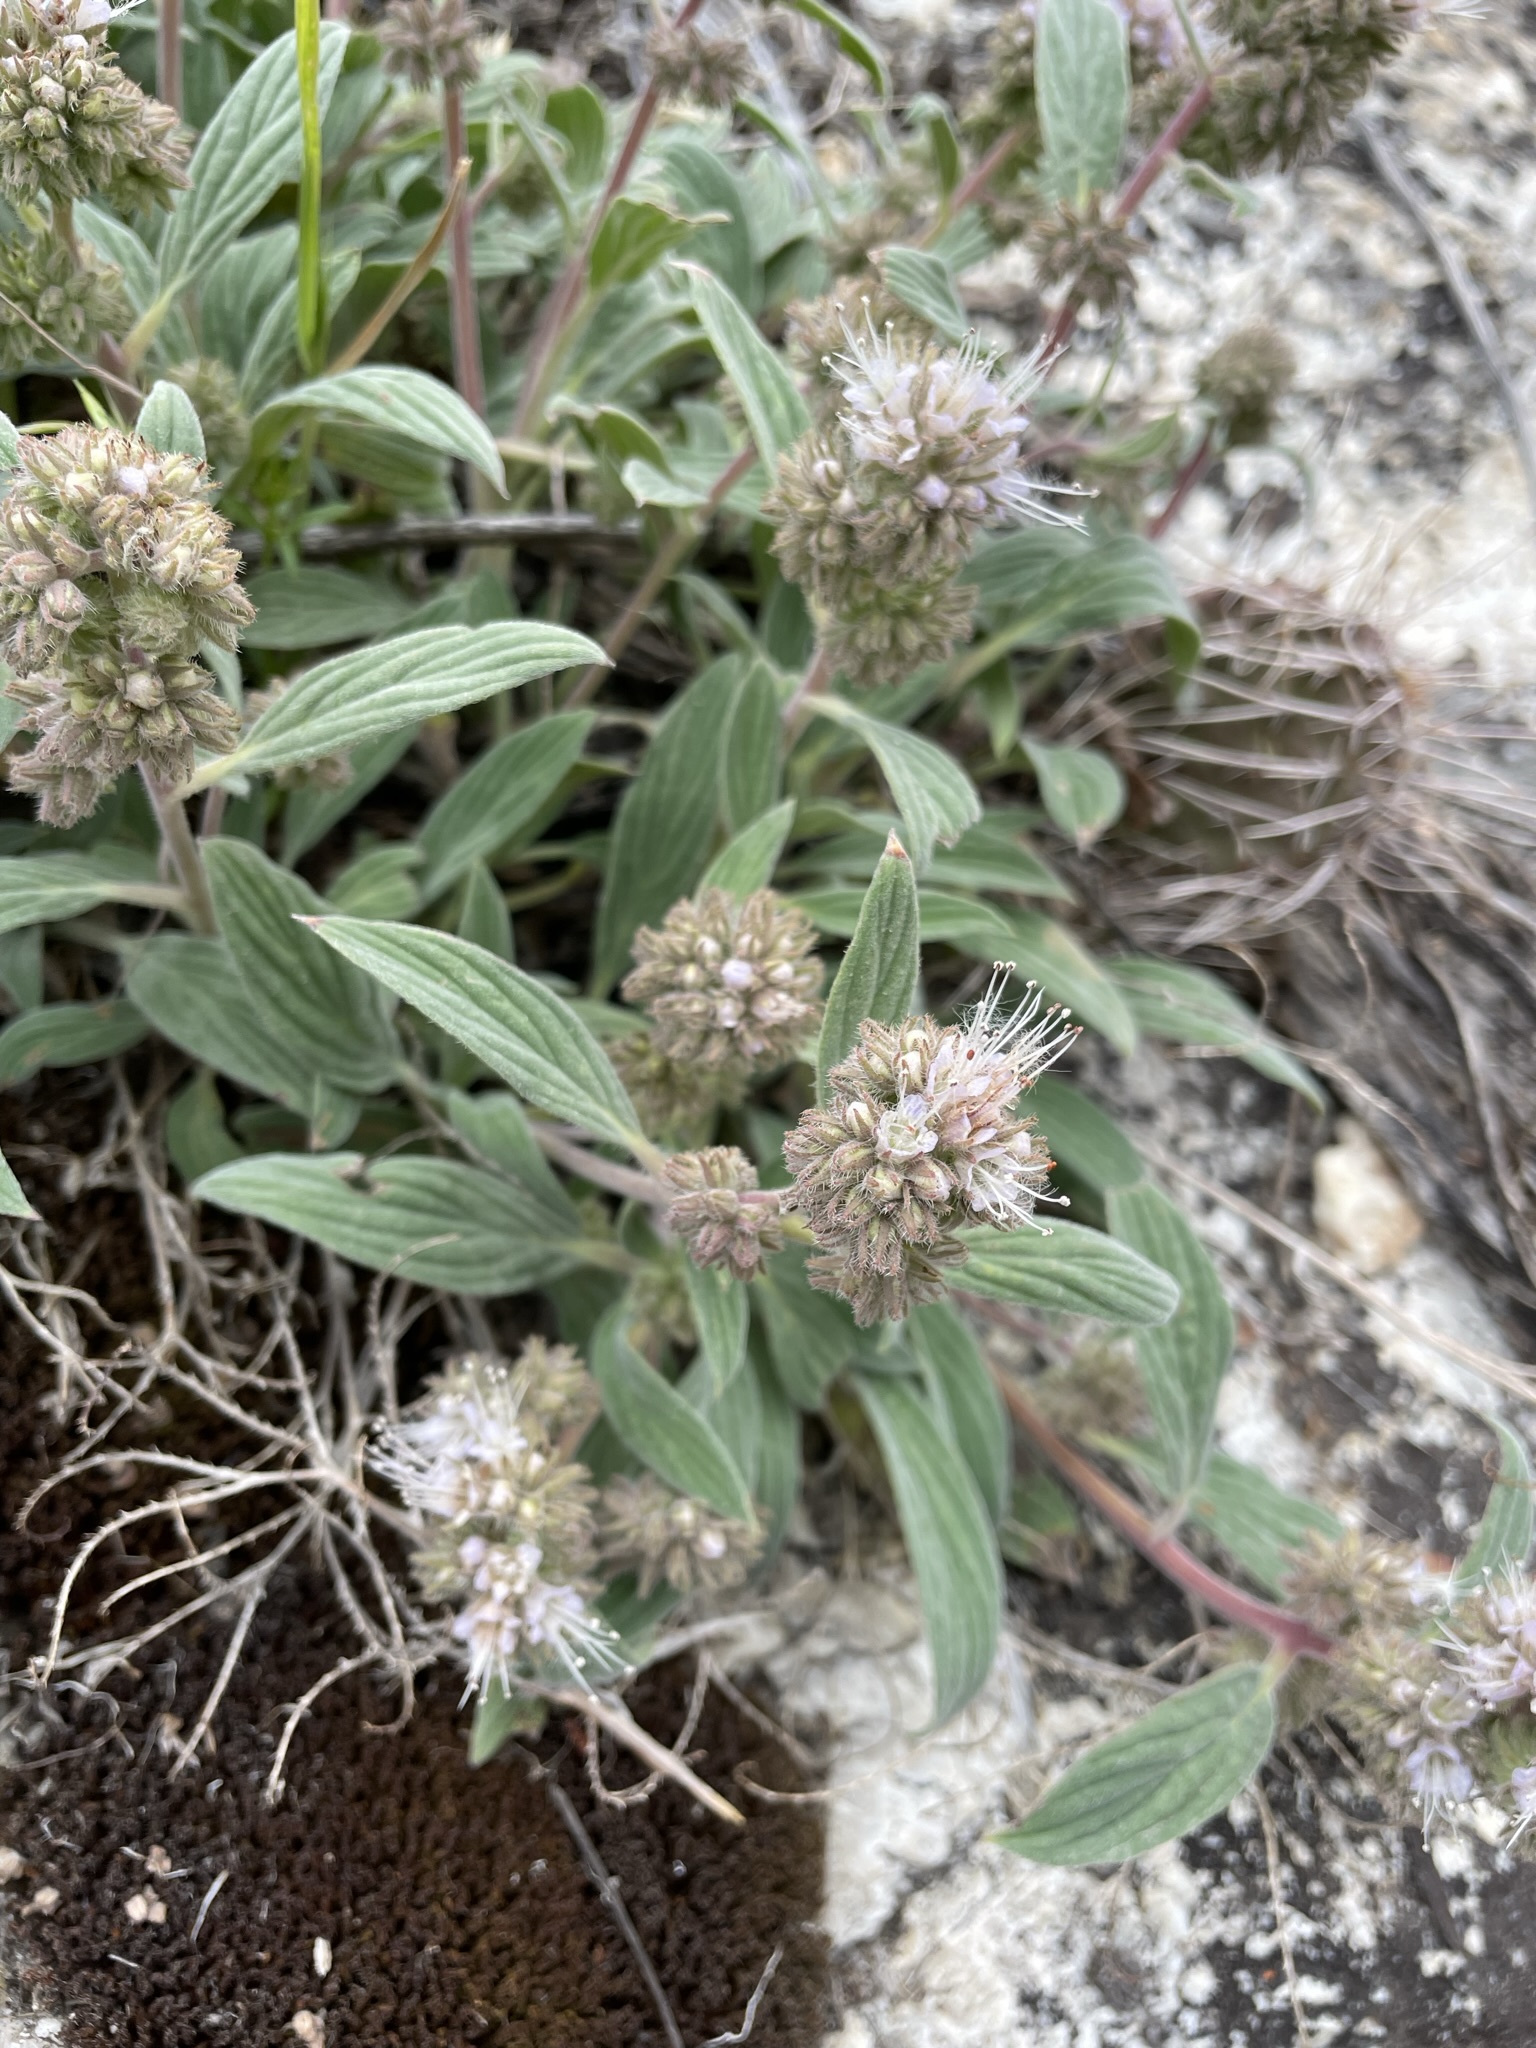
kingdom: Plantae
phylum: Tracheophyta
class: Magnoliopsida
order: Boraginales
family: Hydrophyllaceae
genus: Phacelia
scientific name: Phacelia hastata
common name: Silver-leaved phacelia
